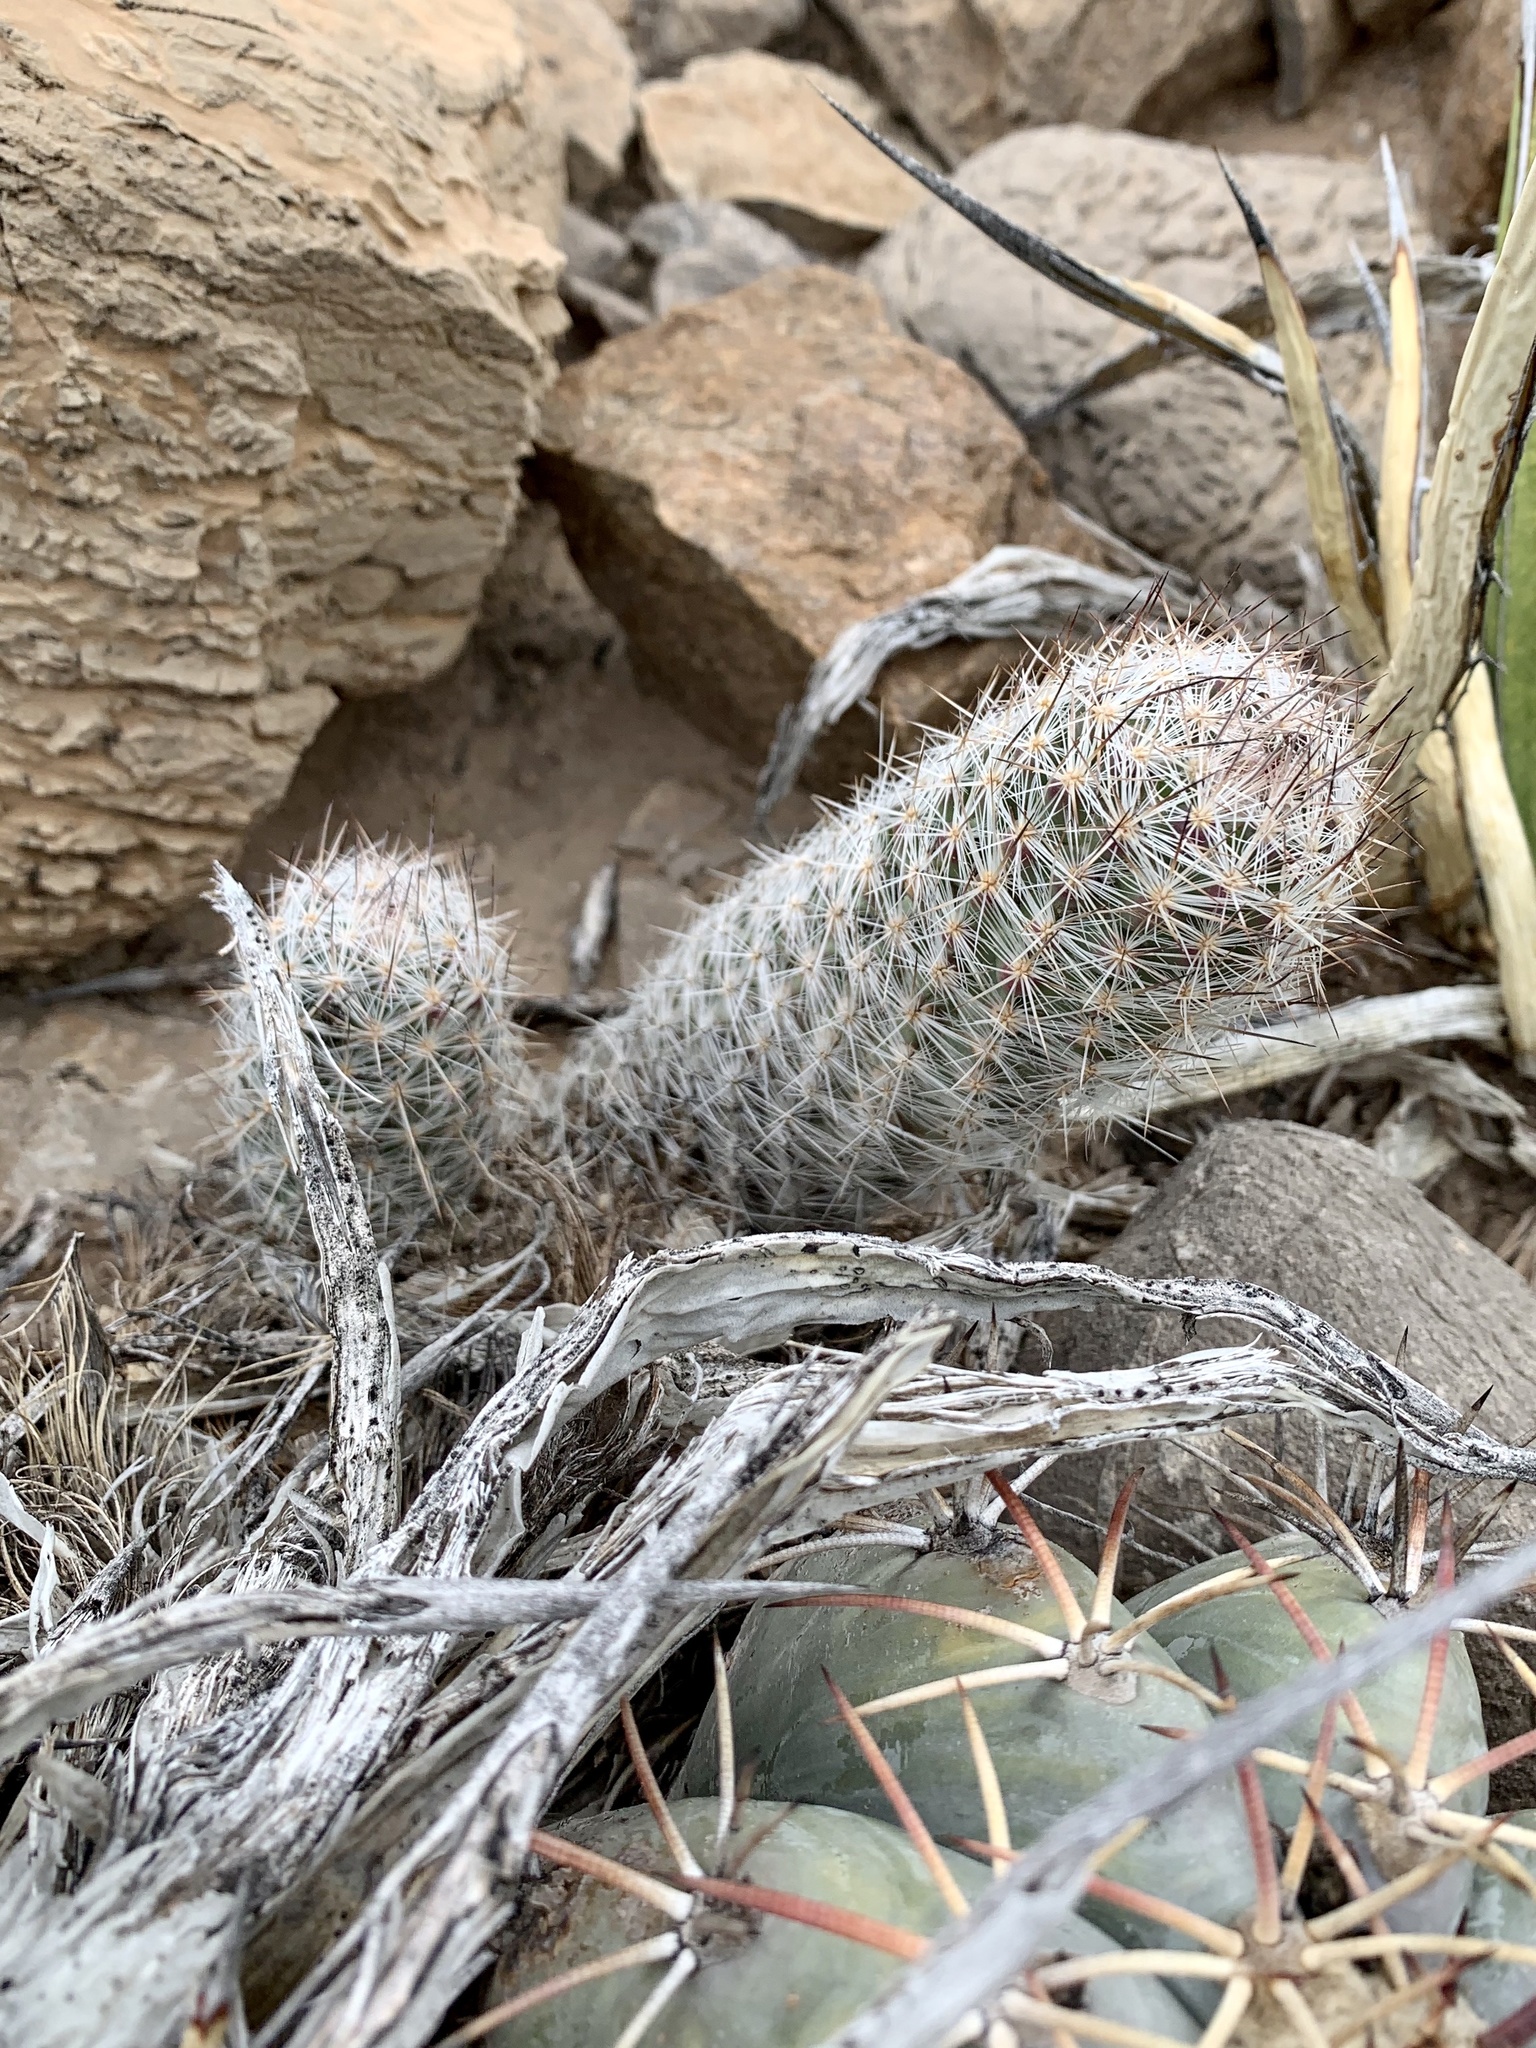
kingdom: Plantae
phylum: Tracheophyta
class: Magnoliopsida
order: Caryophyllales
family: Cactaceae
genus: Pelecyphora
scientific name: Pelecyphora tuberculosa
